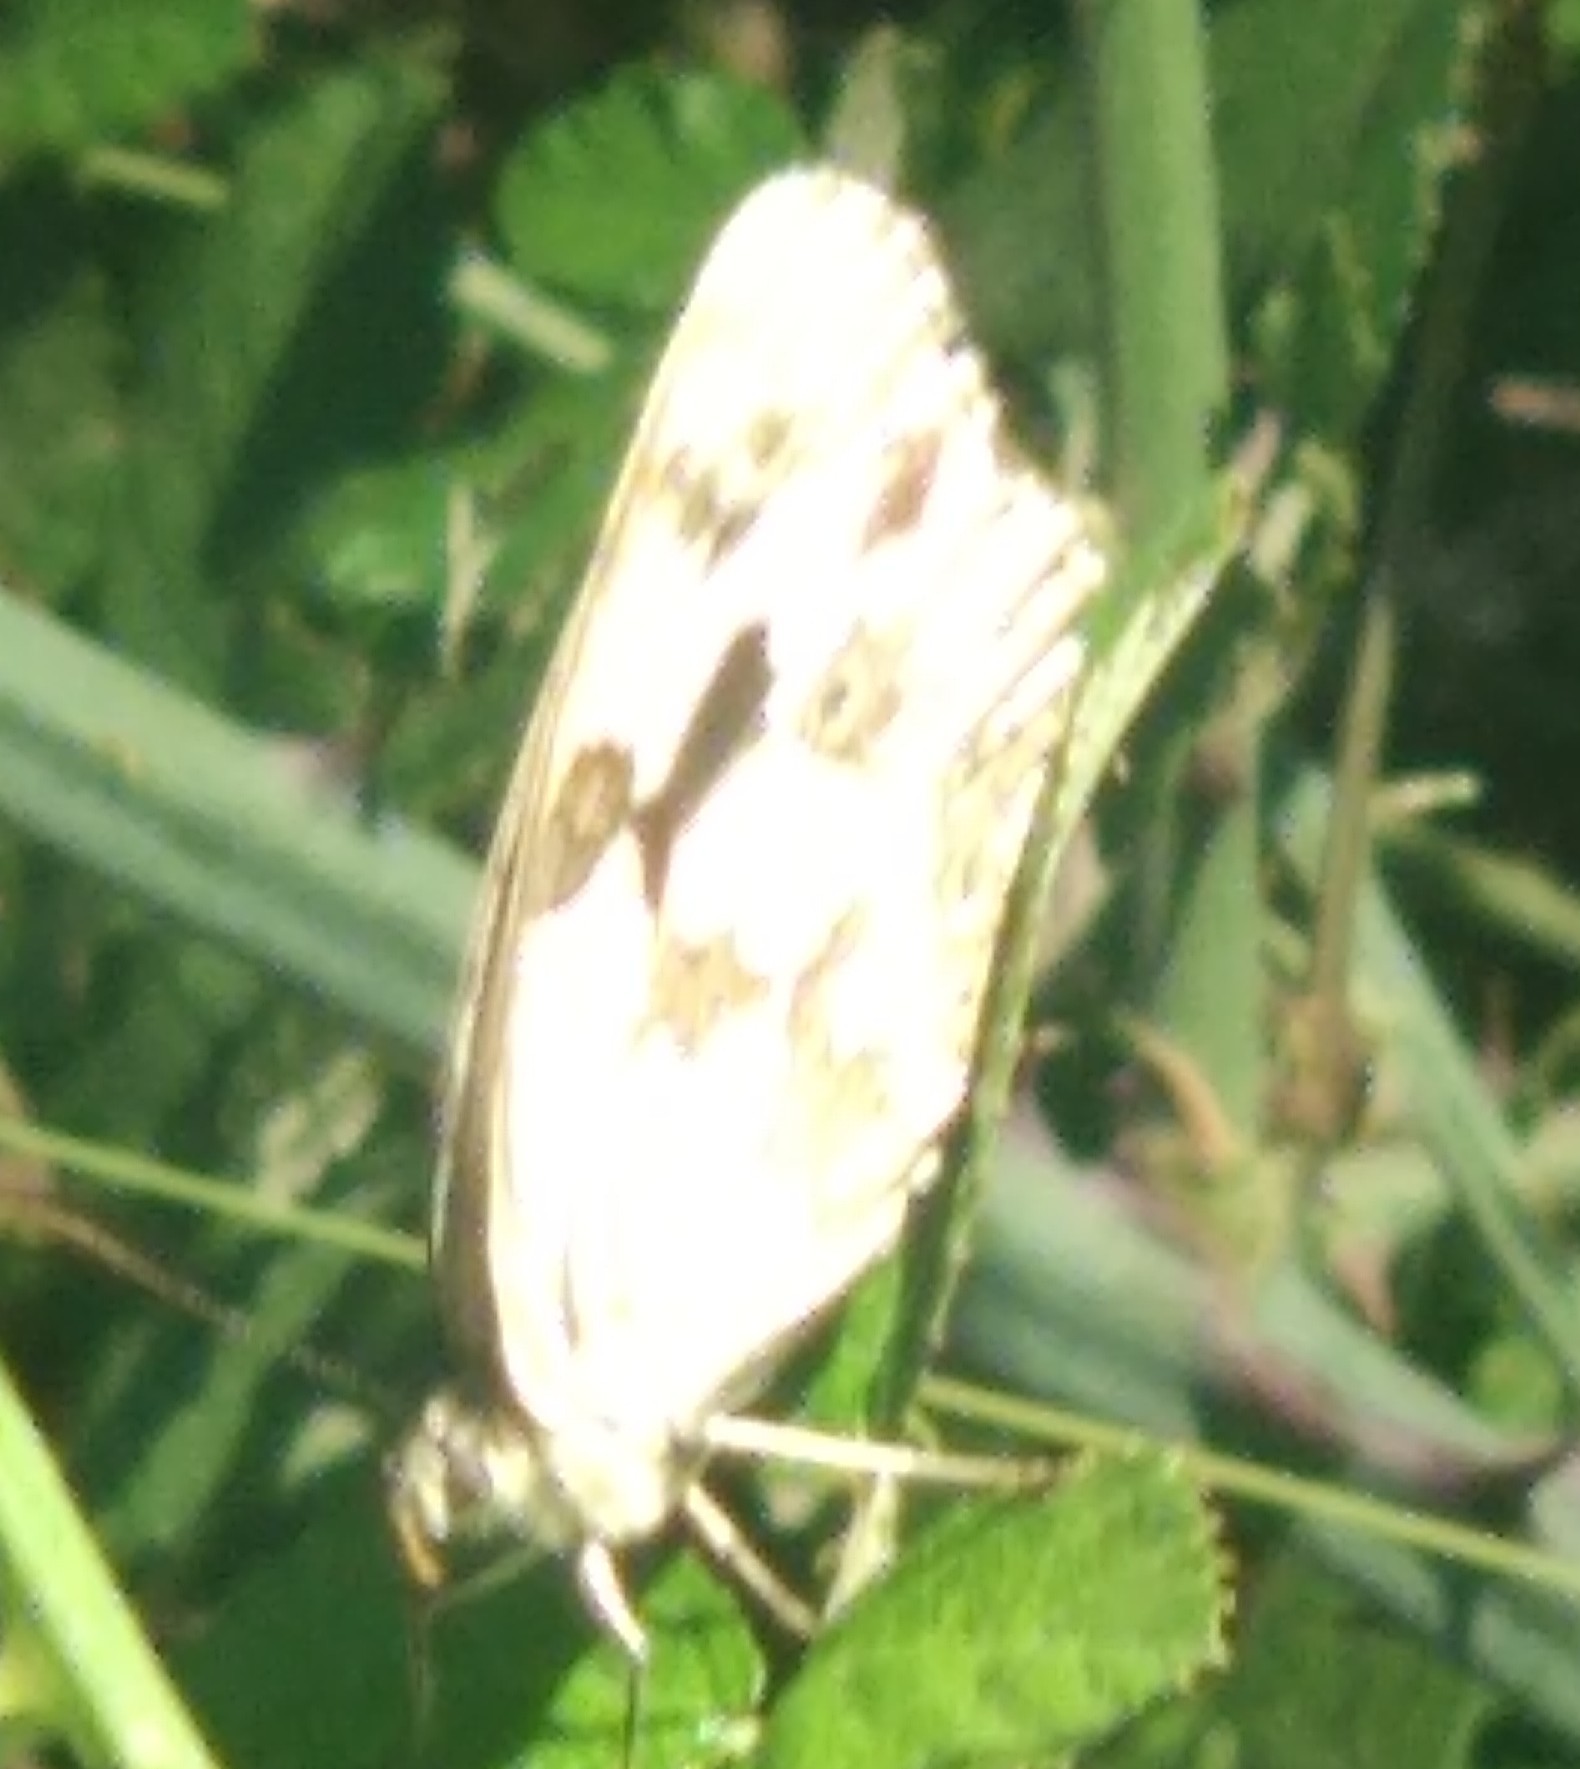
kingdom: Animalia
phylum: Arthropoda
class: Insecta
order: Lepidoptera
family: Nymphalidae
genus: Melanargia
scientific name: Melanargia lachesis
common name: Iberian marbled white
